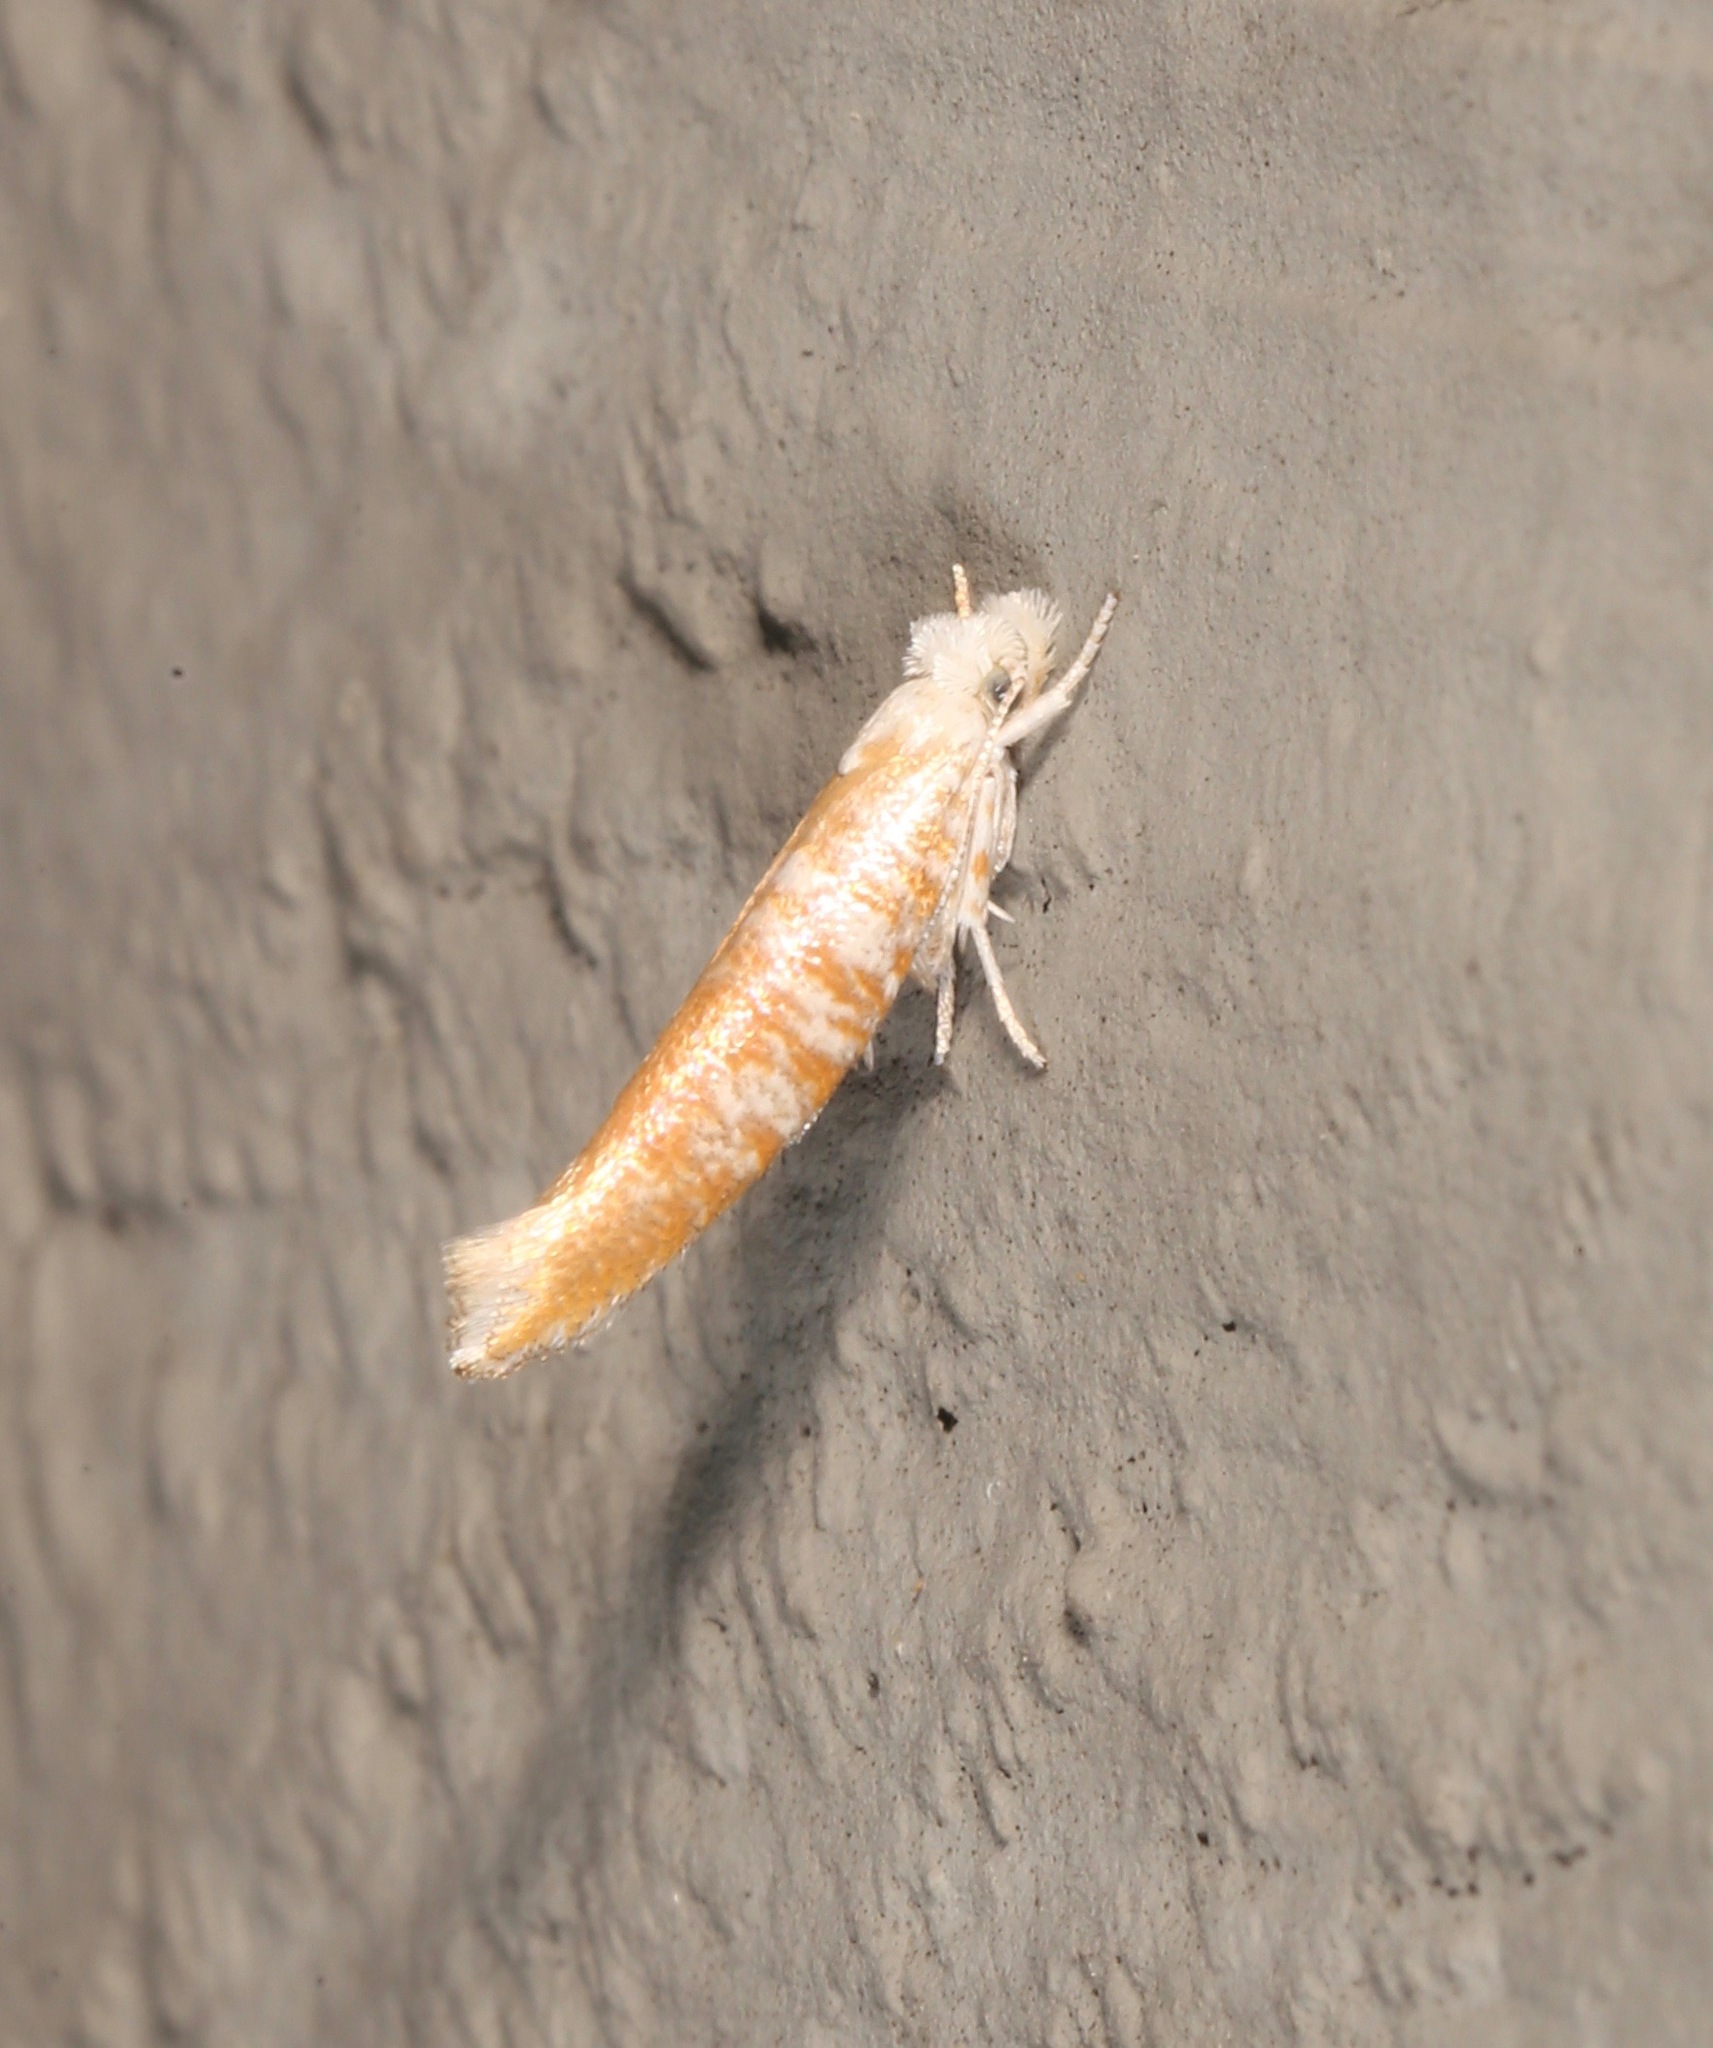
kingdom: Animalia
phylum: Arthropoda
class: Insecta
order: Lepidoptera
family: Yponomeutidae
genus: Zelleria
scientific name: Zelleria retiniella
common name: Brindled zelleria
